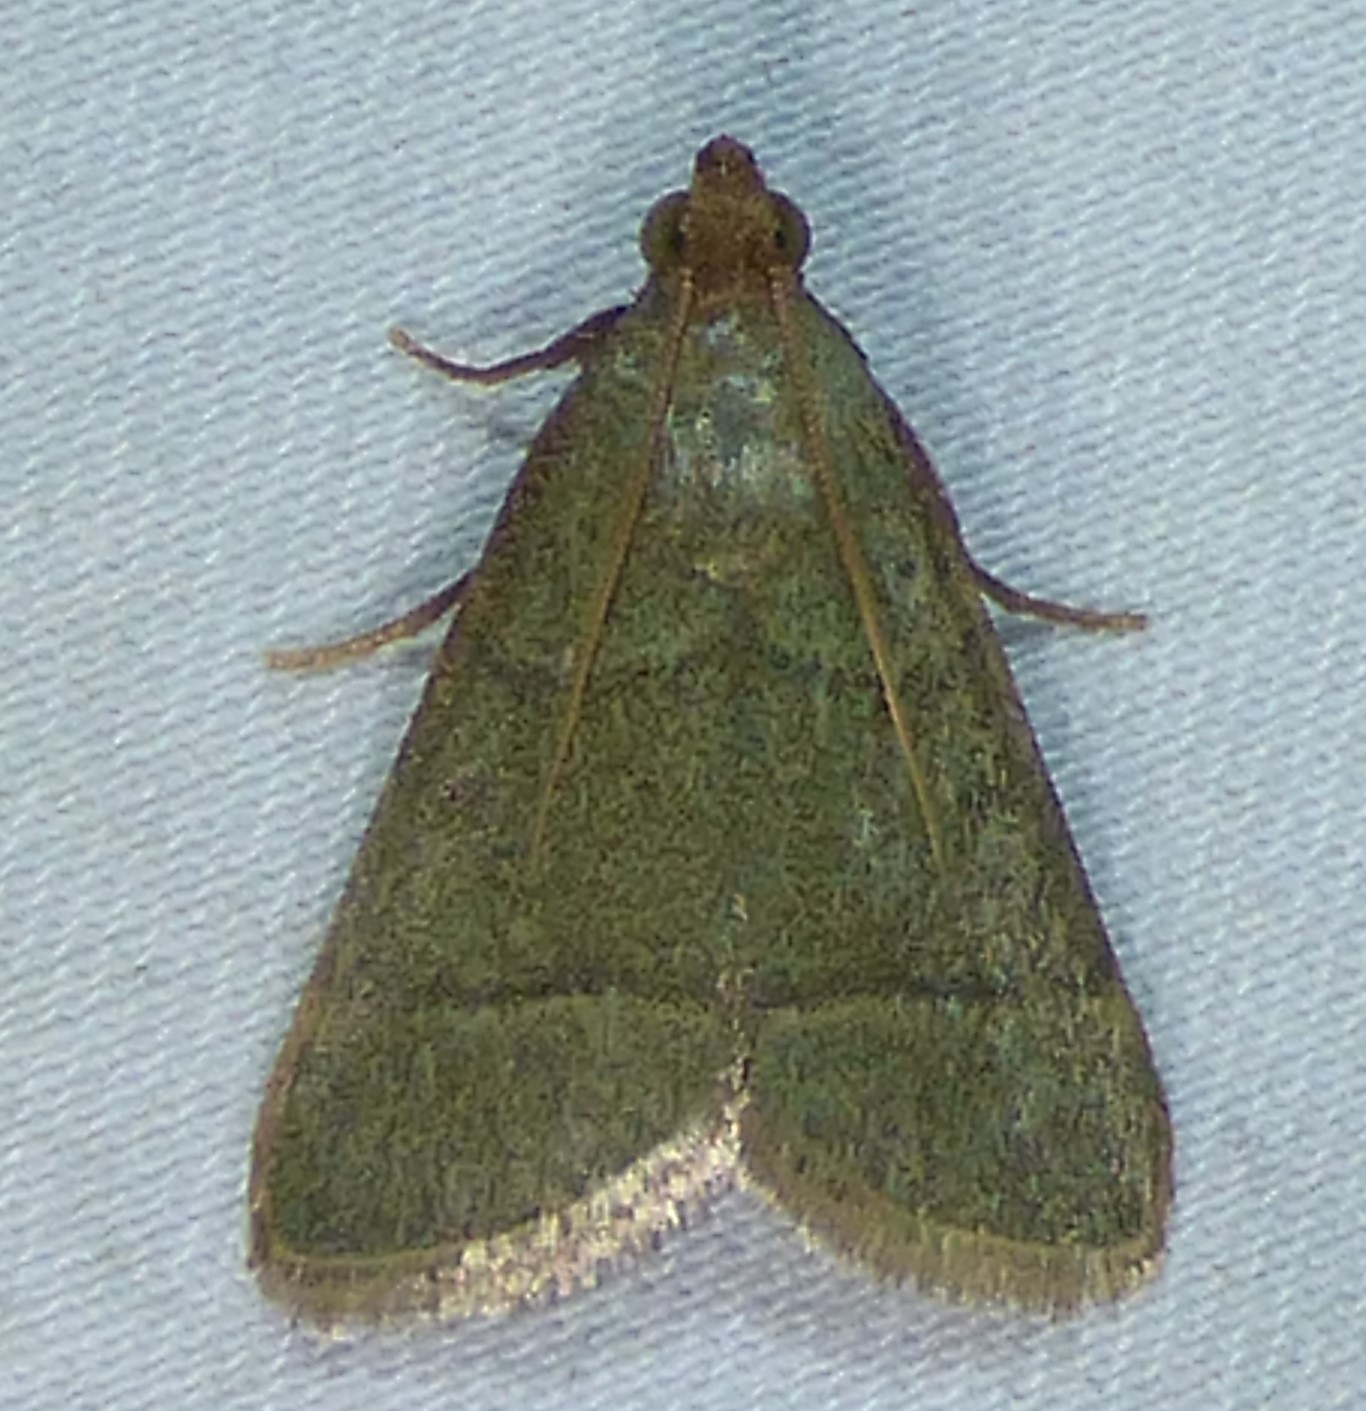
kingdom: Animalia
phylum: Arthropoda
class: Insecta
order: Lepidoptera
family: Pyralidae
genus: Hypsopygia
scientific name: Hypsopygia nostralis
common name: Southern hayworm moth
